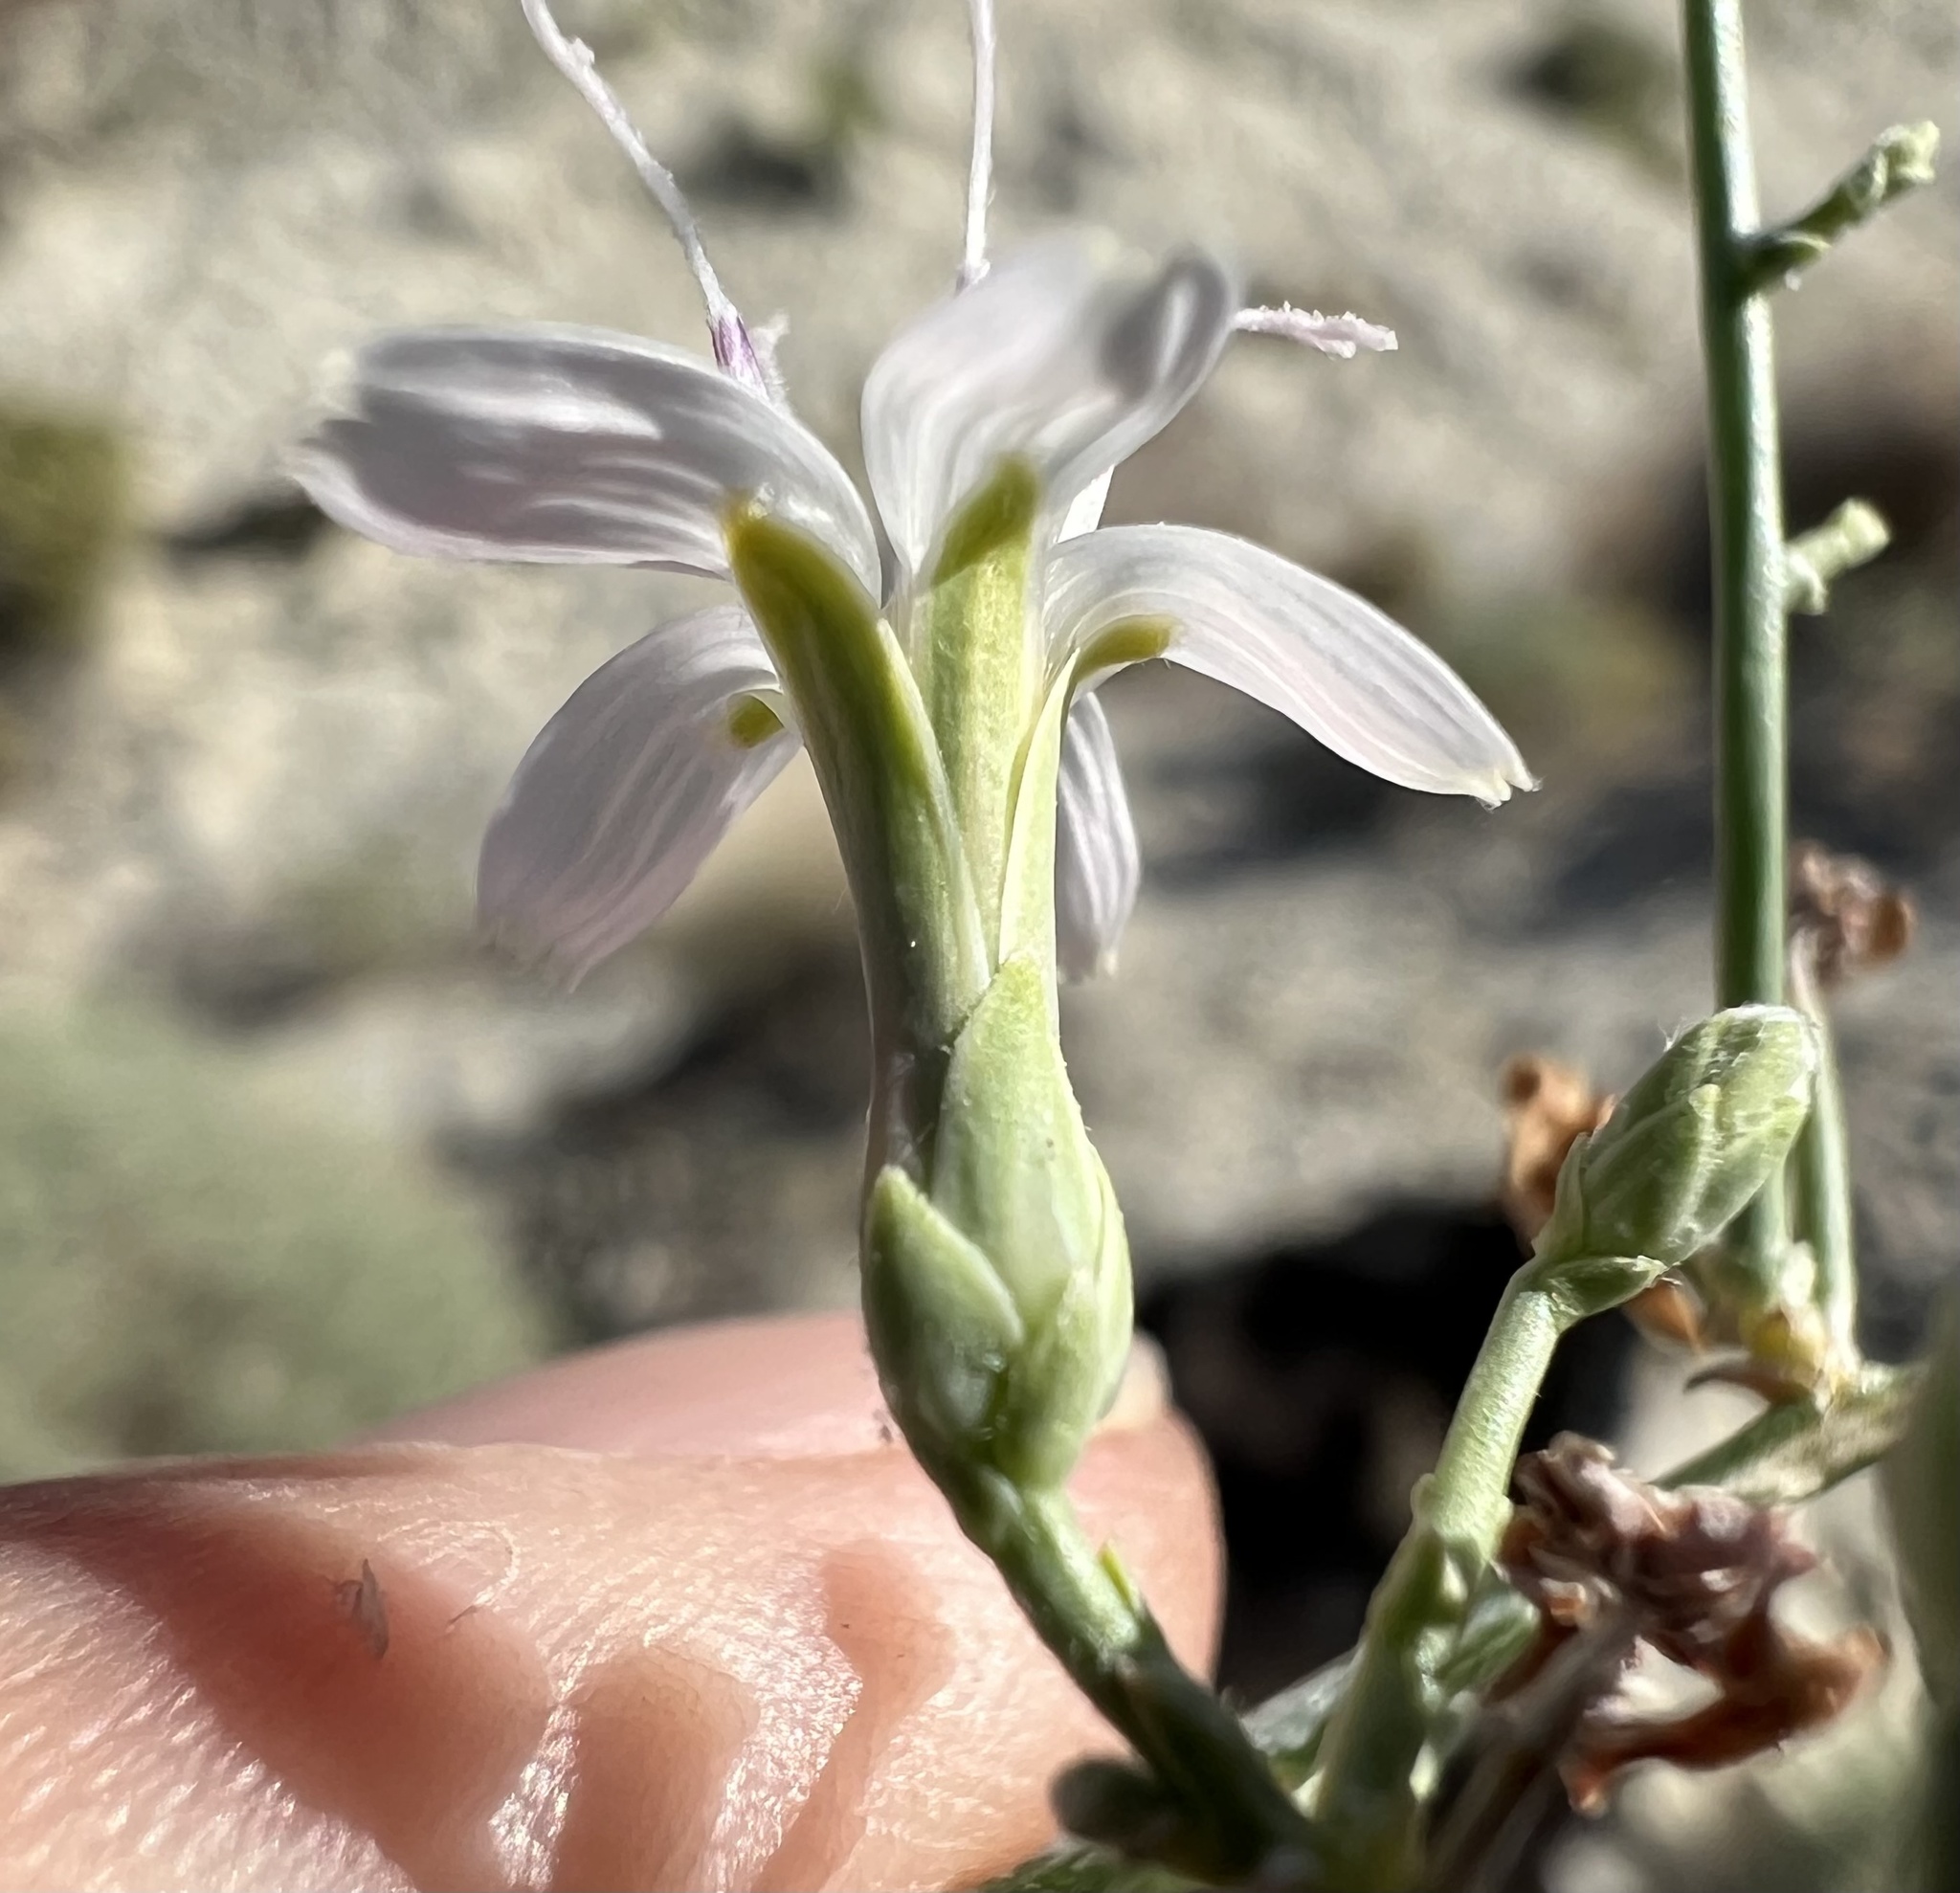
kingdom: Plantae
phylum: Tracheophyta
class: Magnoliopsida
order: Asterales
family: Asteraceae
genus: Stephanomeria
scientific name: Stephanomeria pauciflora
